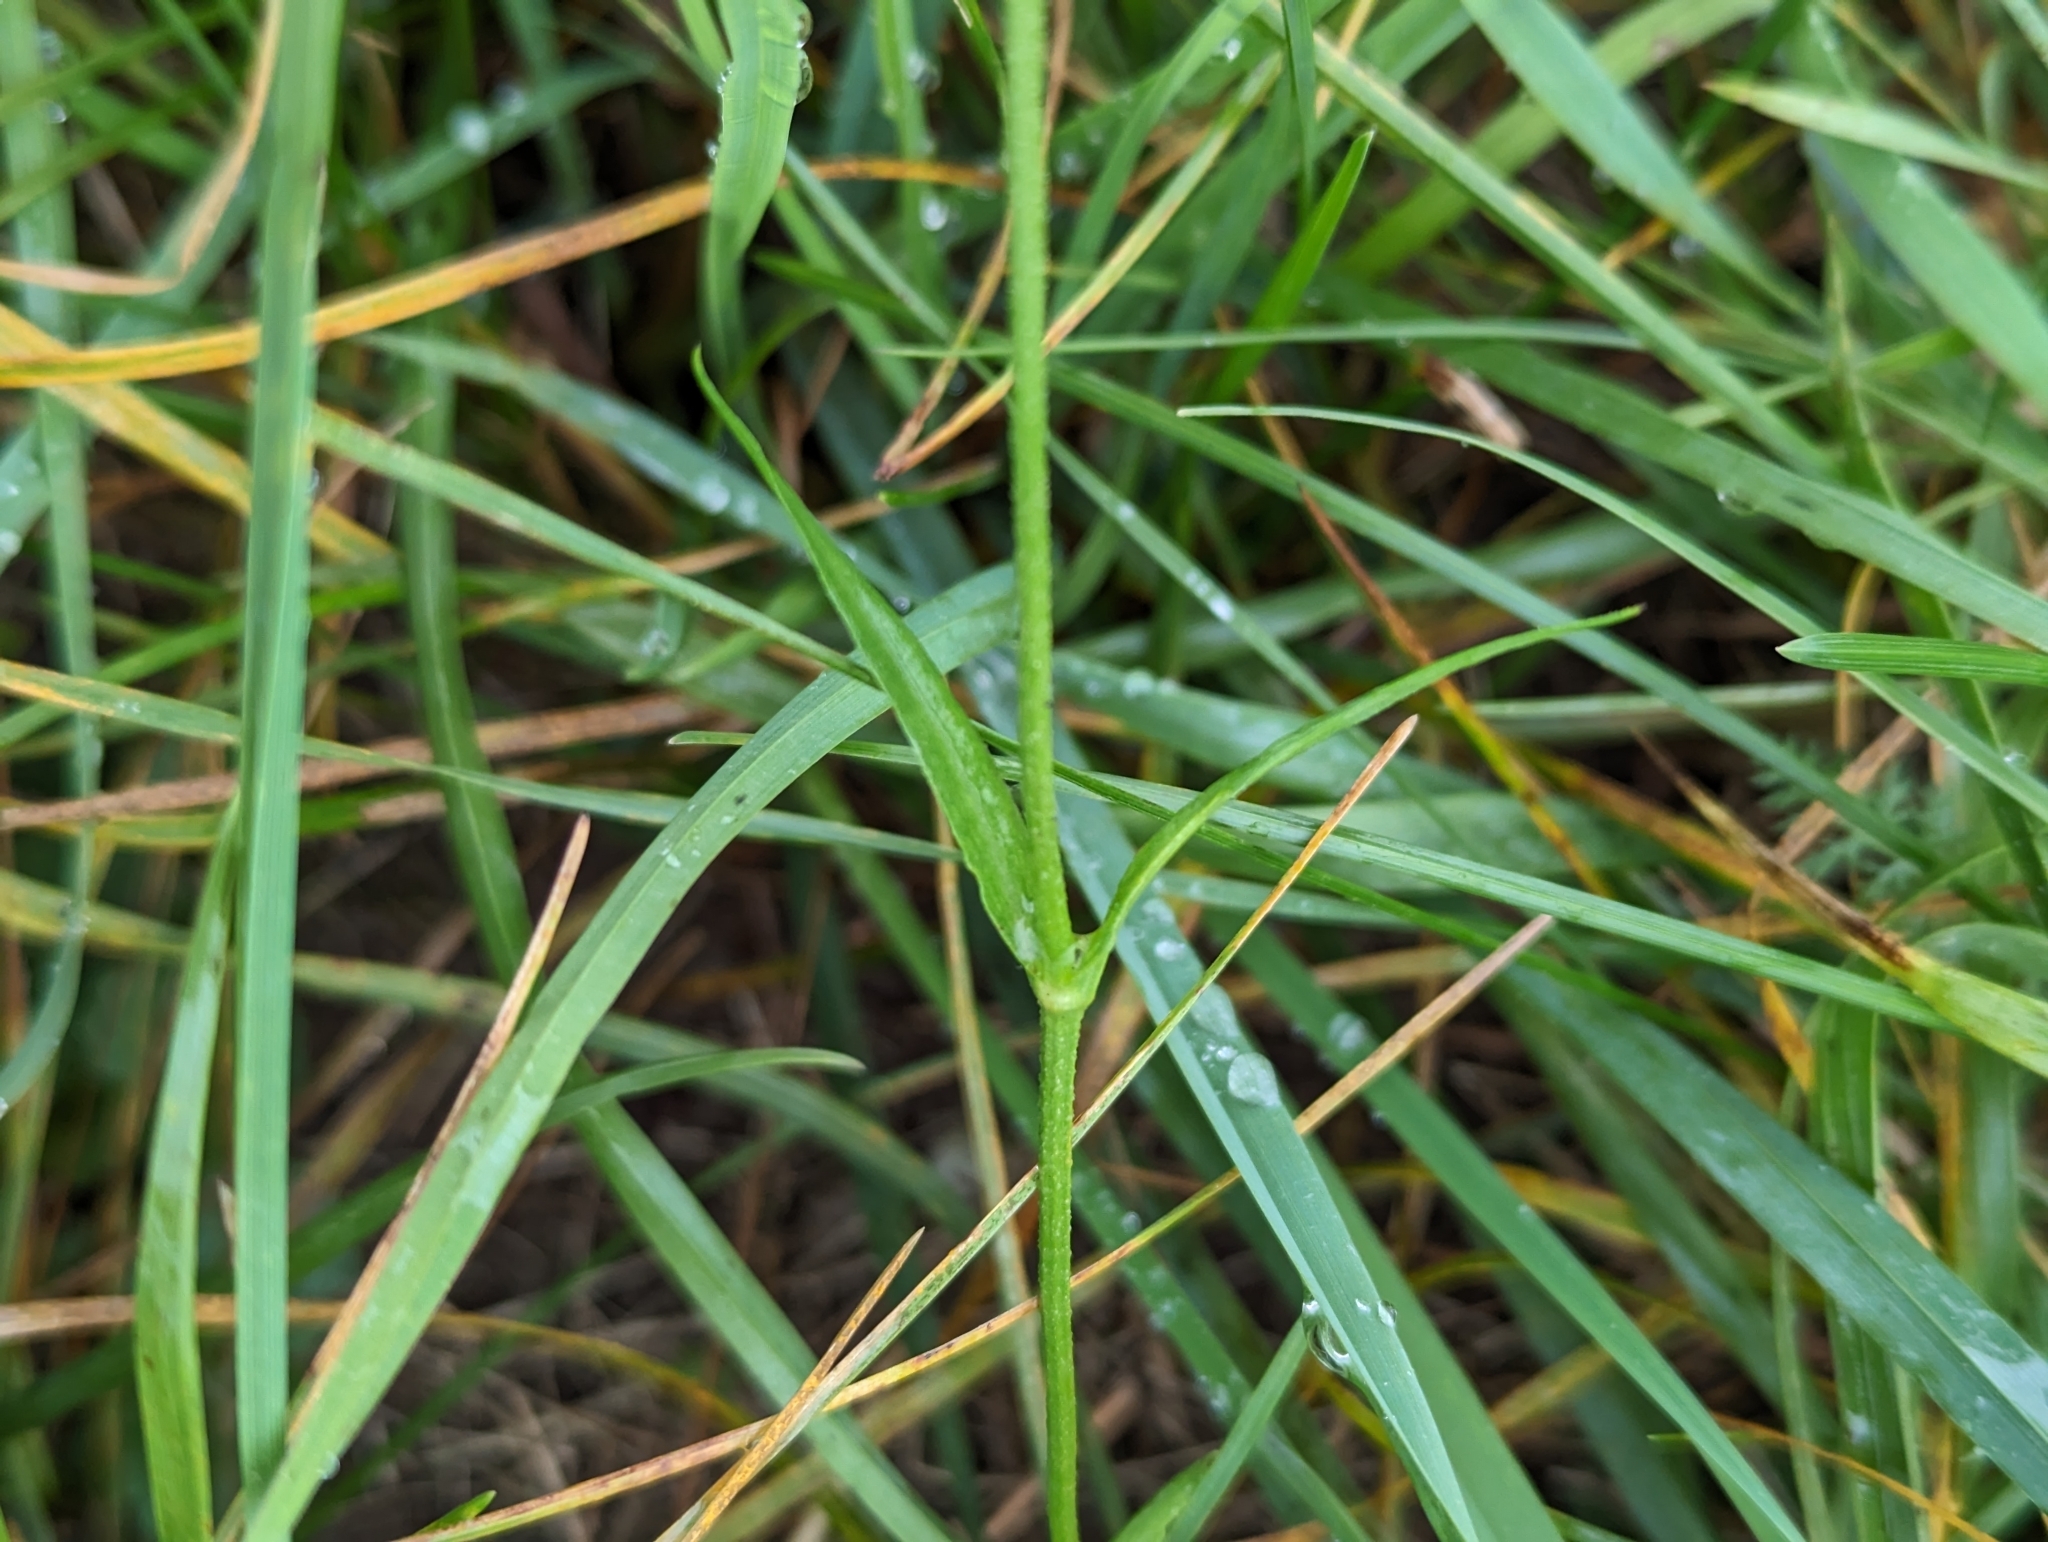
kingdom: Plantae
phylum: Tracheophyta
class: Magnoliopsida
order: Caryophyllales
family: Caryophyllaceae
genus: Silene
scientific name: Silene flos-cuculi
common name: Ragged-robin
